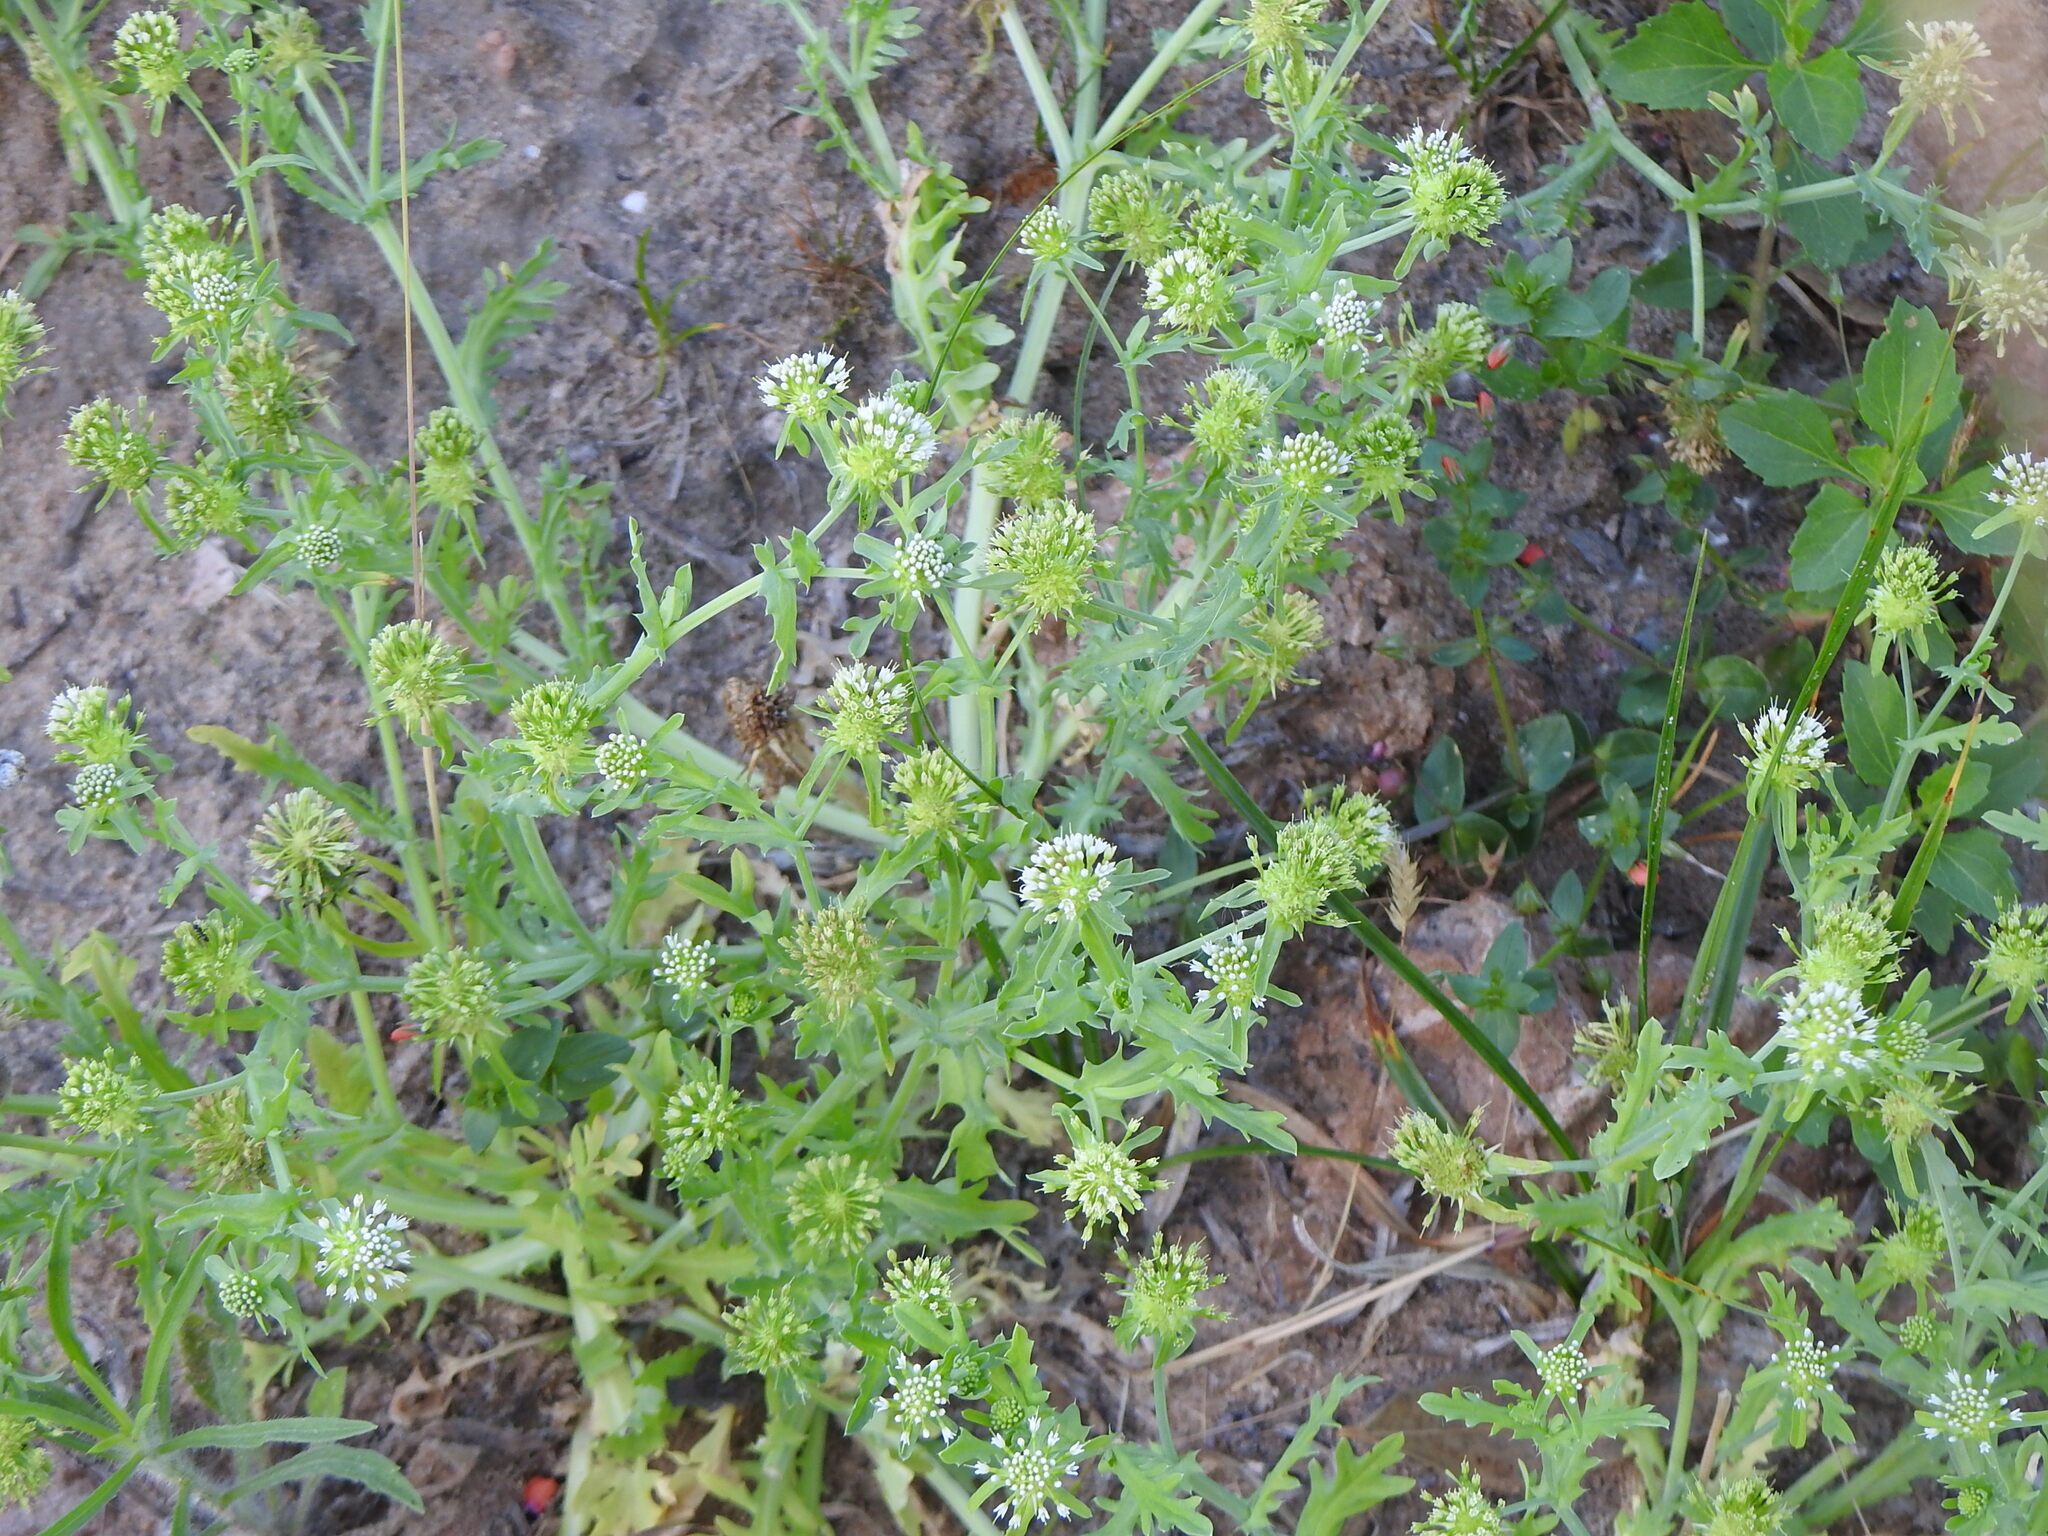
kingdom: Plantae
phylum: Tracheophyta
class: Magnoliopsida
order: Asterales
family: Calyceraceae
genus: Acicarpha
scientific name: Acicarpha tribuloides
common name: Madam gorgon
